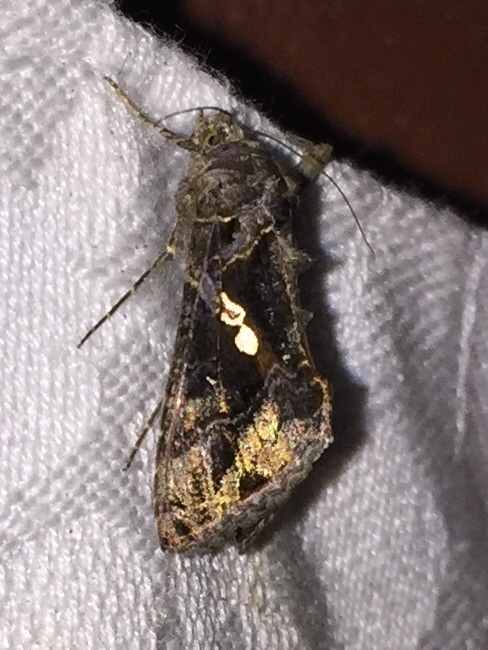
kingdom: Animalia
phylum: Arthropoda
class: Insecta
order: Lepidoptera
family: Noctuidae
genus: Chrysodeixis
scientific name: Chrysodeixis includens
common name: Cutworm moth
